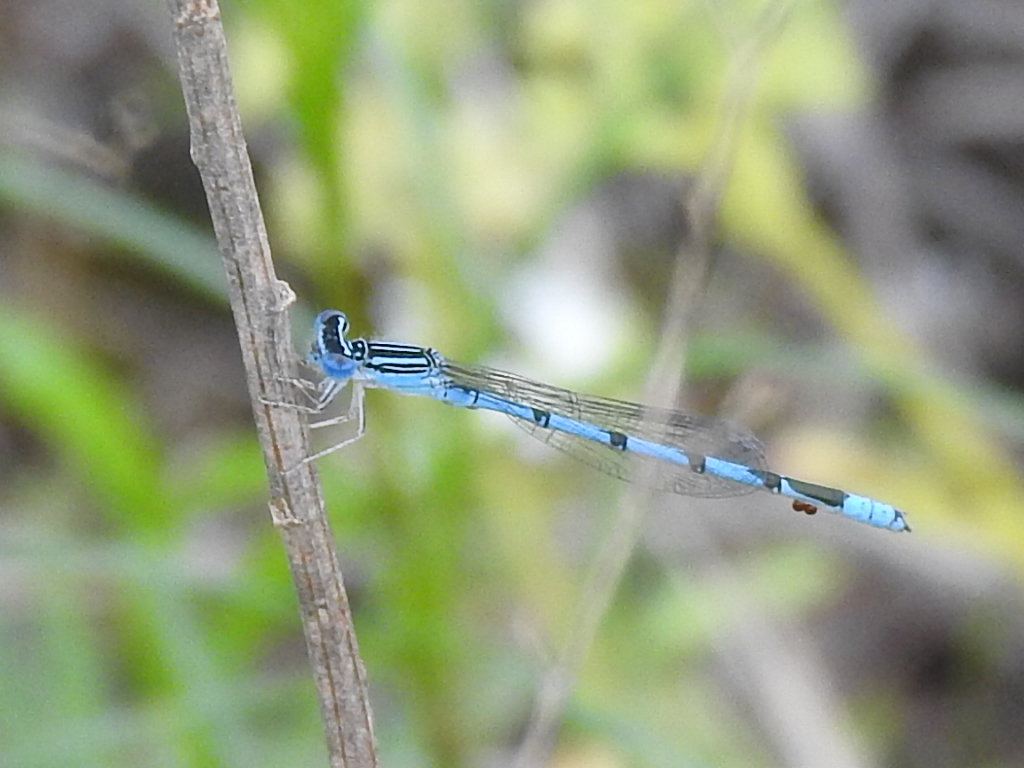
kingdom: Animalia
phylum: Arthropoda
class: Insecta
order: Odonata
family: Coenagrionidae
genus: Enallagma
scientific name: Enallagma basidens
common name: Double-striped bluet
